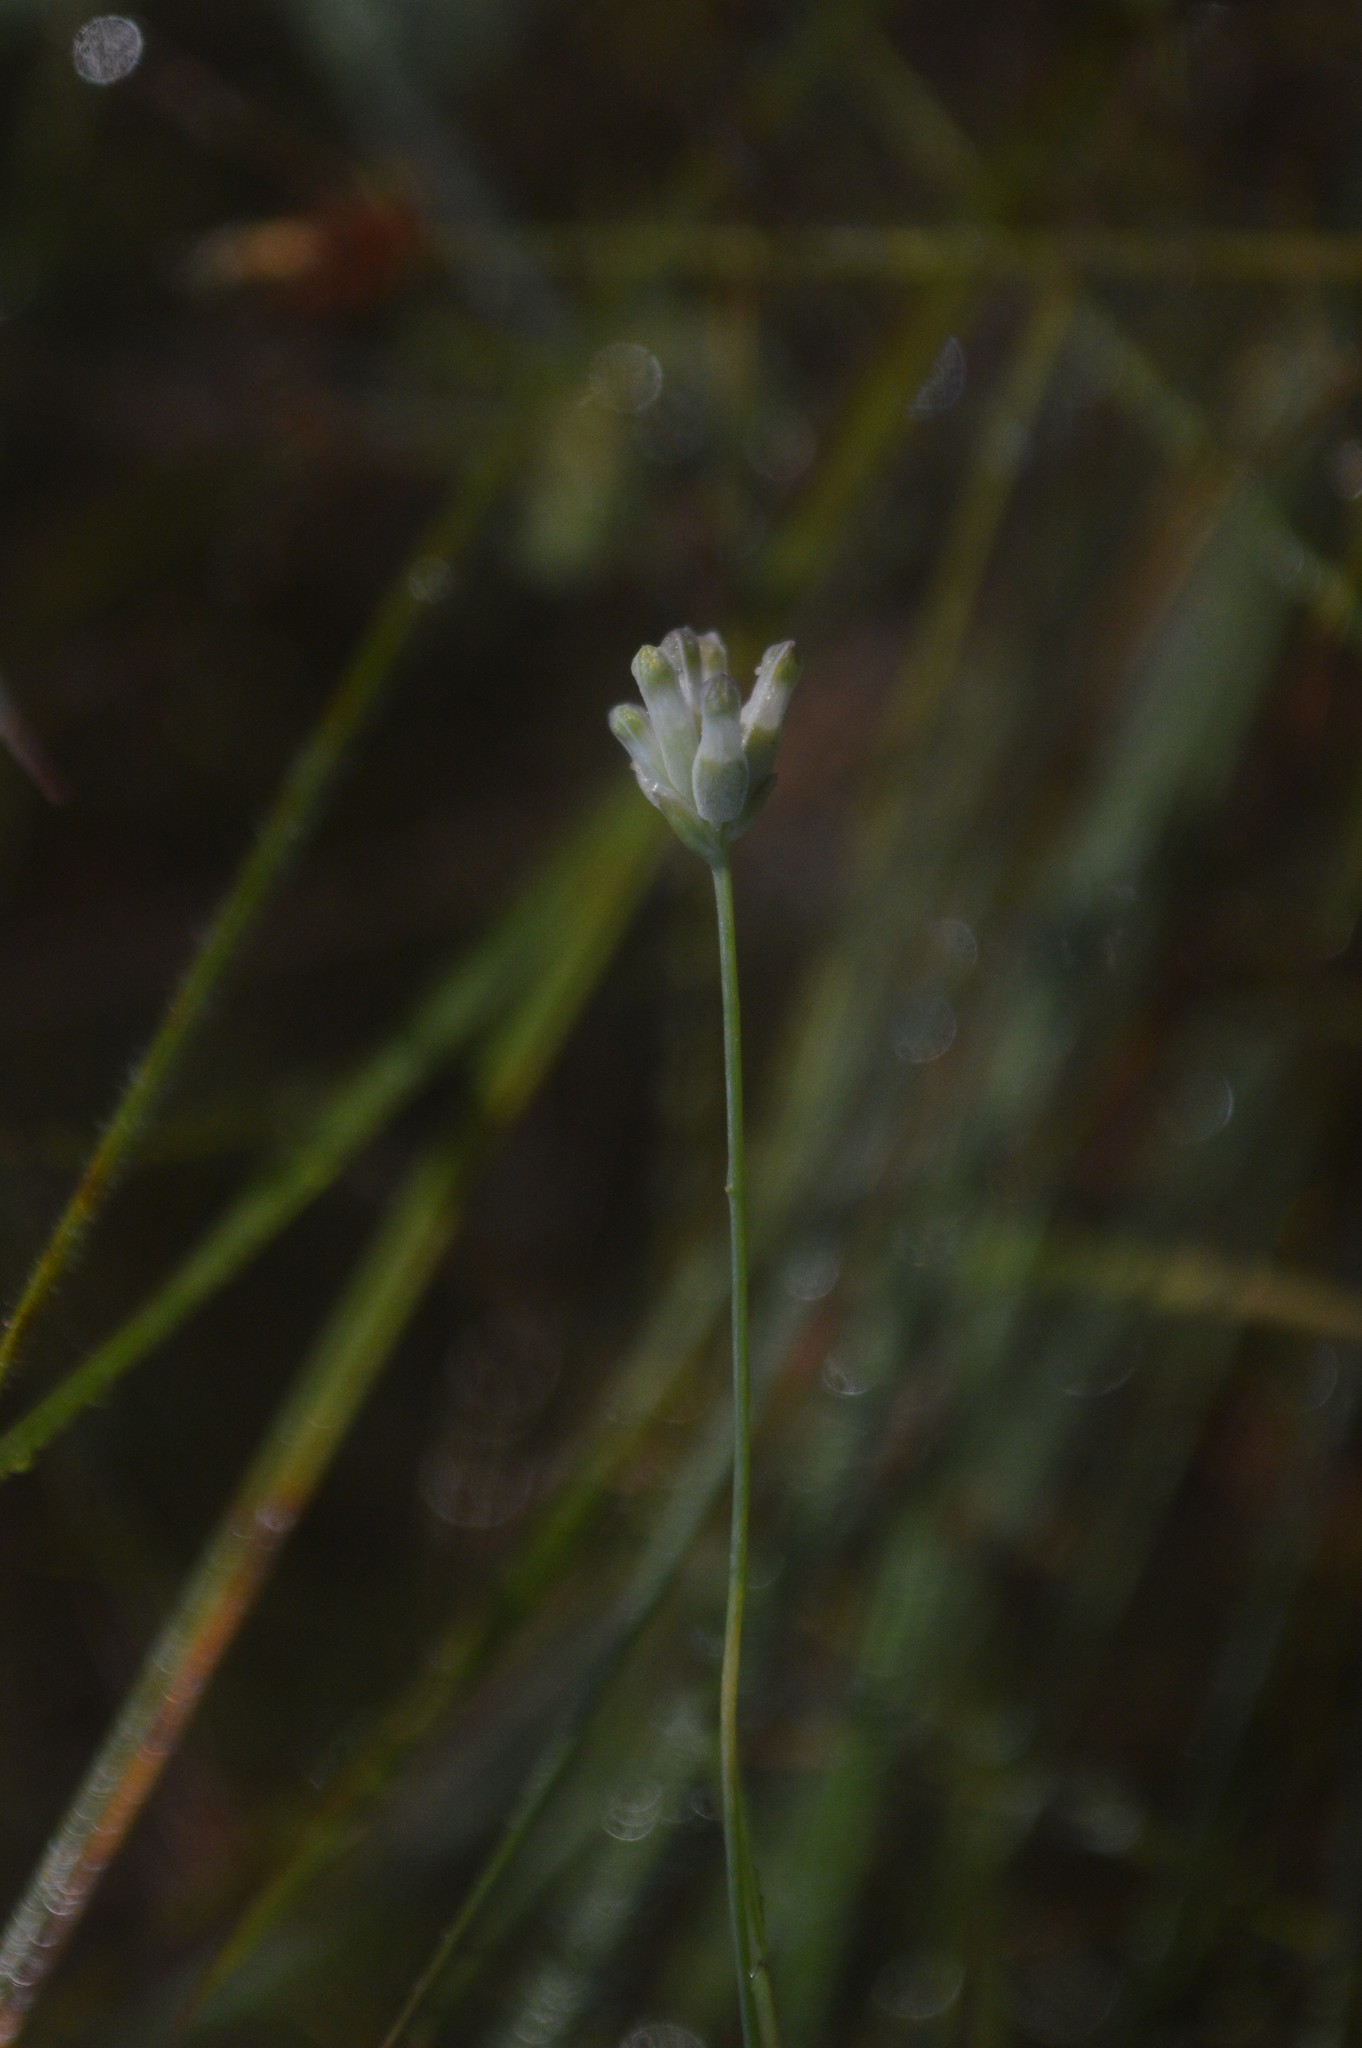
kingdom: Plantae
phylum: Tracheophyta
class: Liliopsida
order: Dioscoreales
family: Burmanniaceae
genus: Burmannia
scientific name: Burmannia capitata
